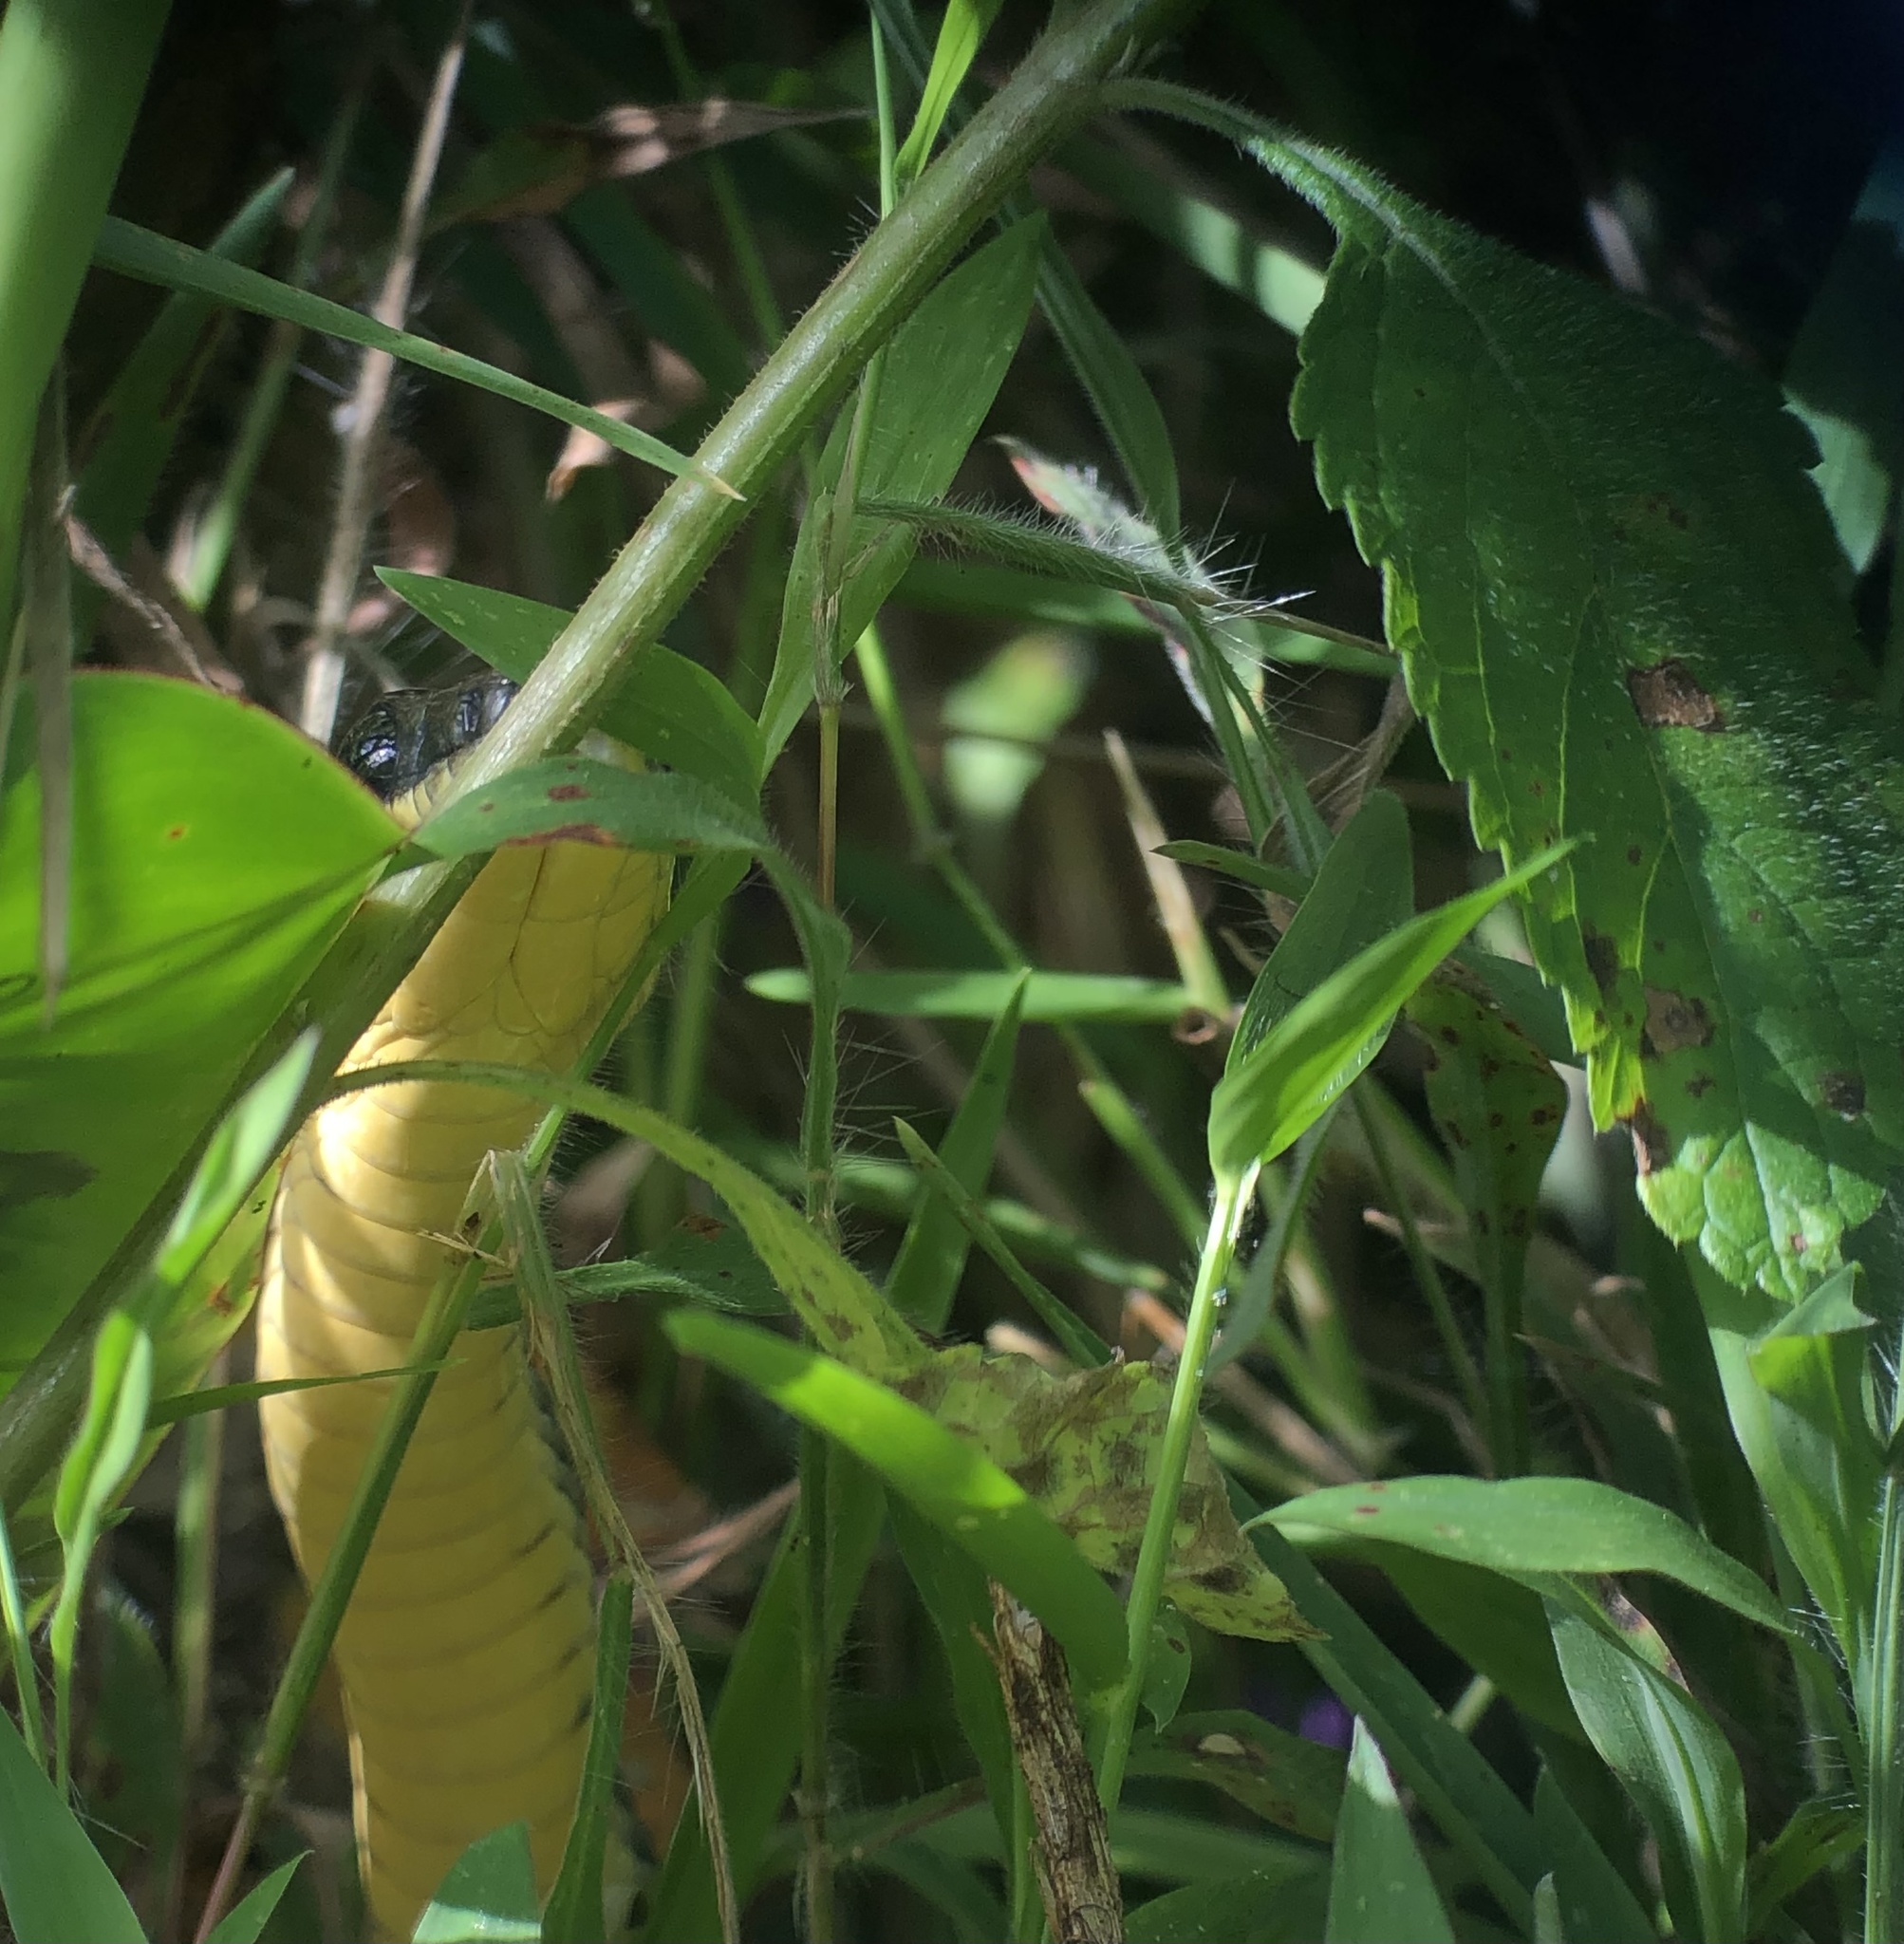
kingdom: Animalia
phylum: Chordata
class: Squamata
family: Colubridae
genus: Phrynonax
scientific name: Phrynonax poecilonotus
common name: Puffing snake
